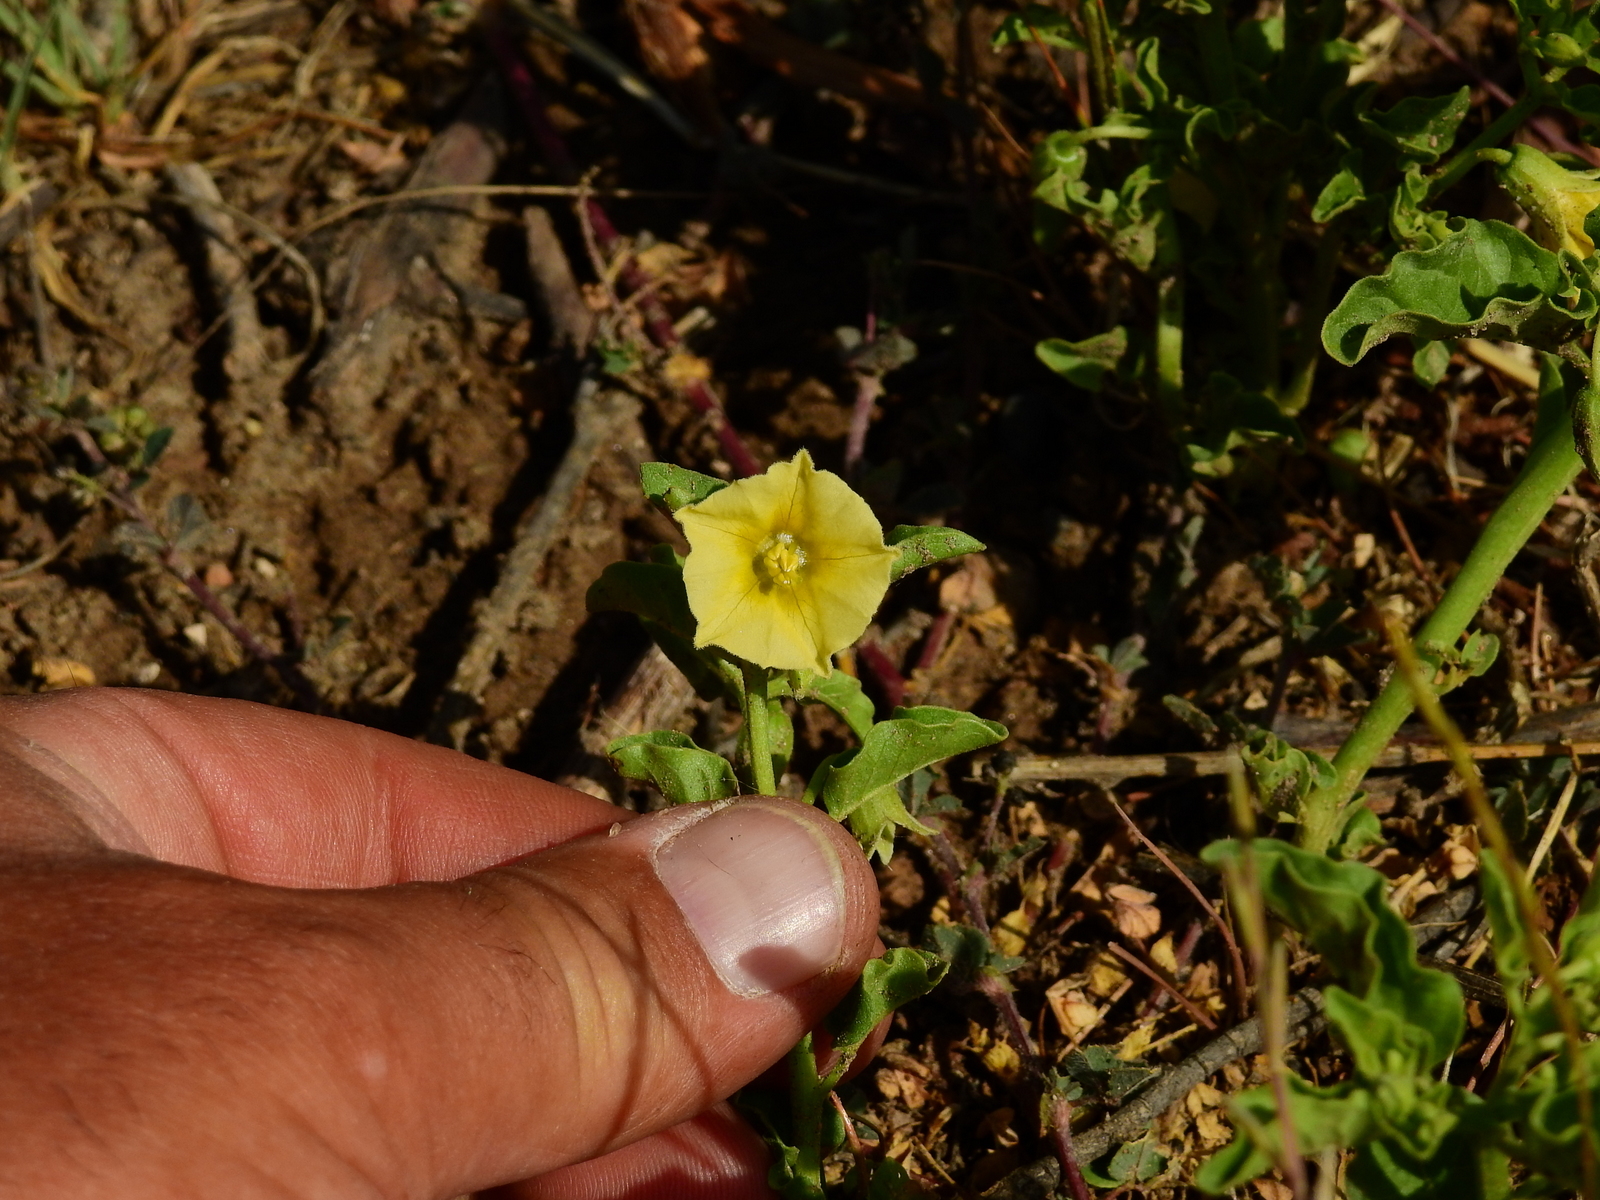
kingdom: Plantae
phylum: Tracheophyta
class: Magnoliopsida
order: Solanales
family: Solanaceae
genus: Physalis
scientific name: Physalis viscosa
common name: Stellate ground-cherry
